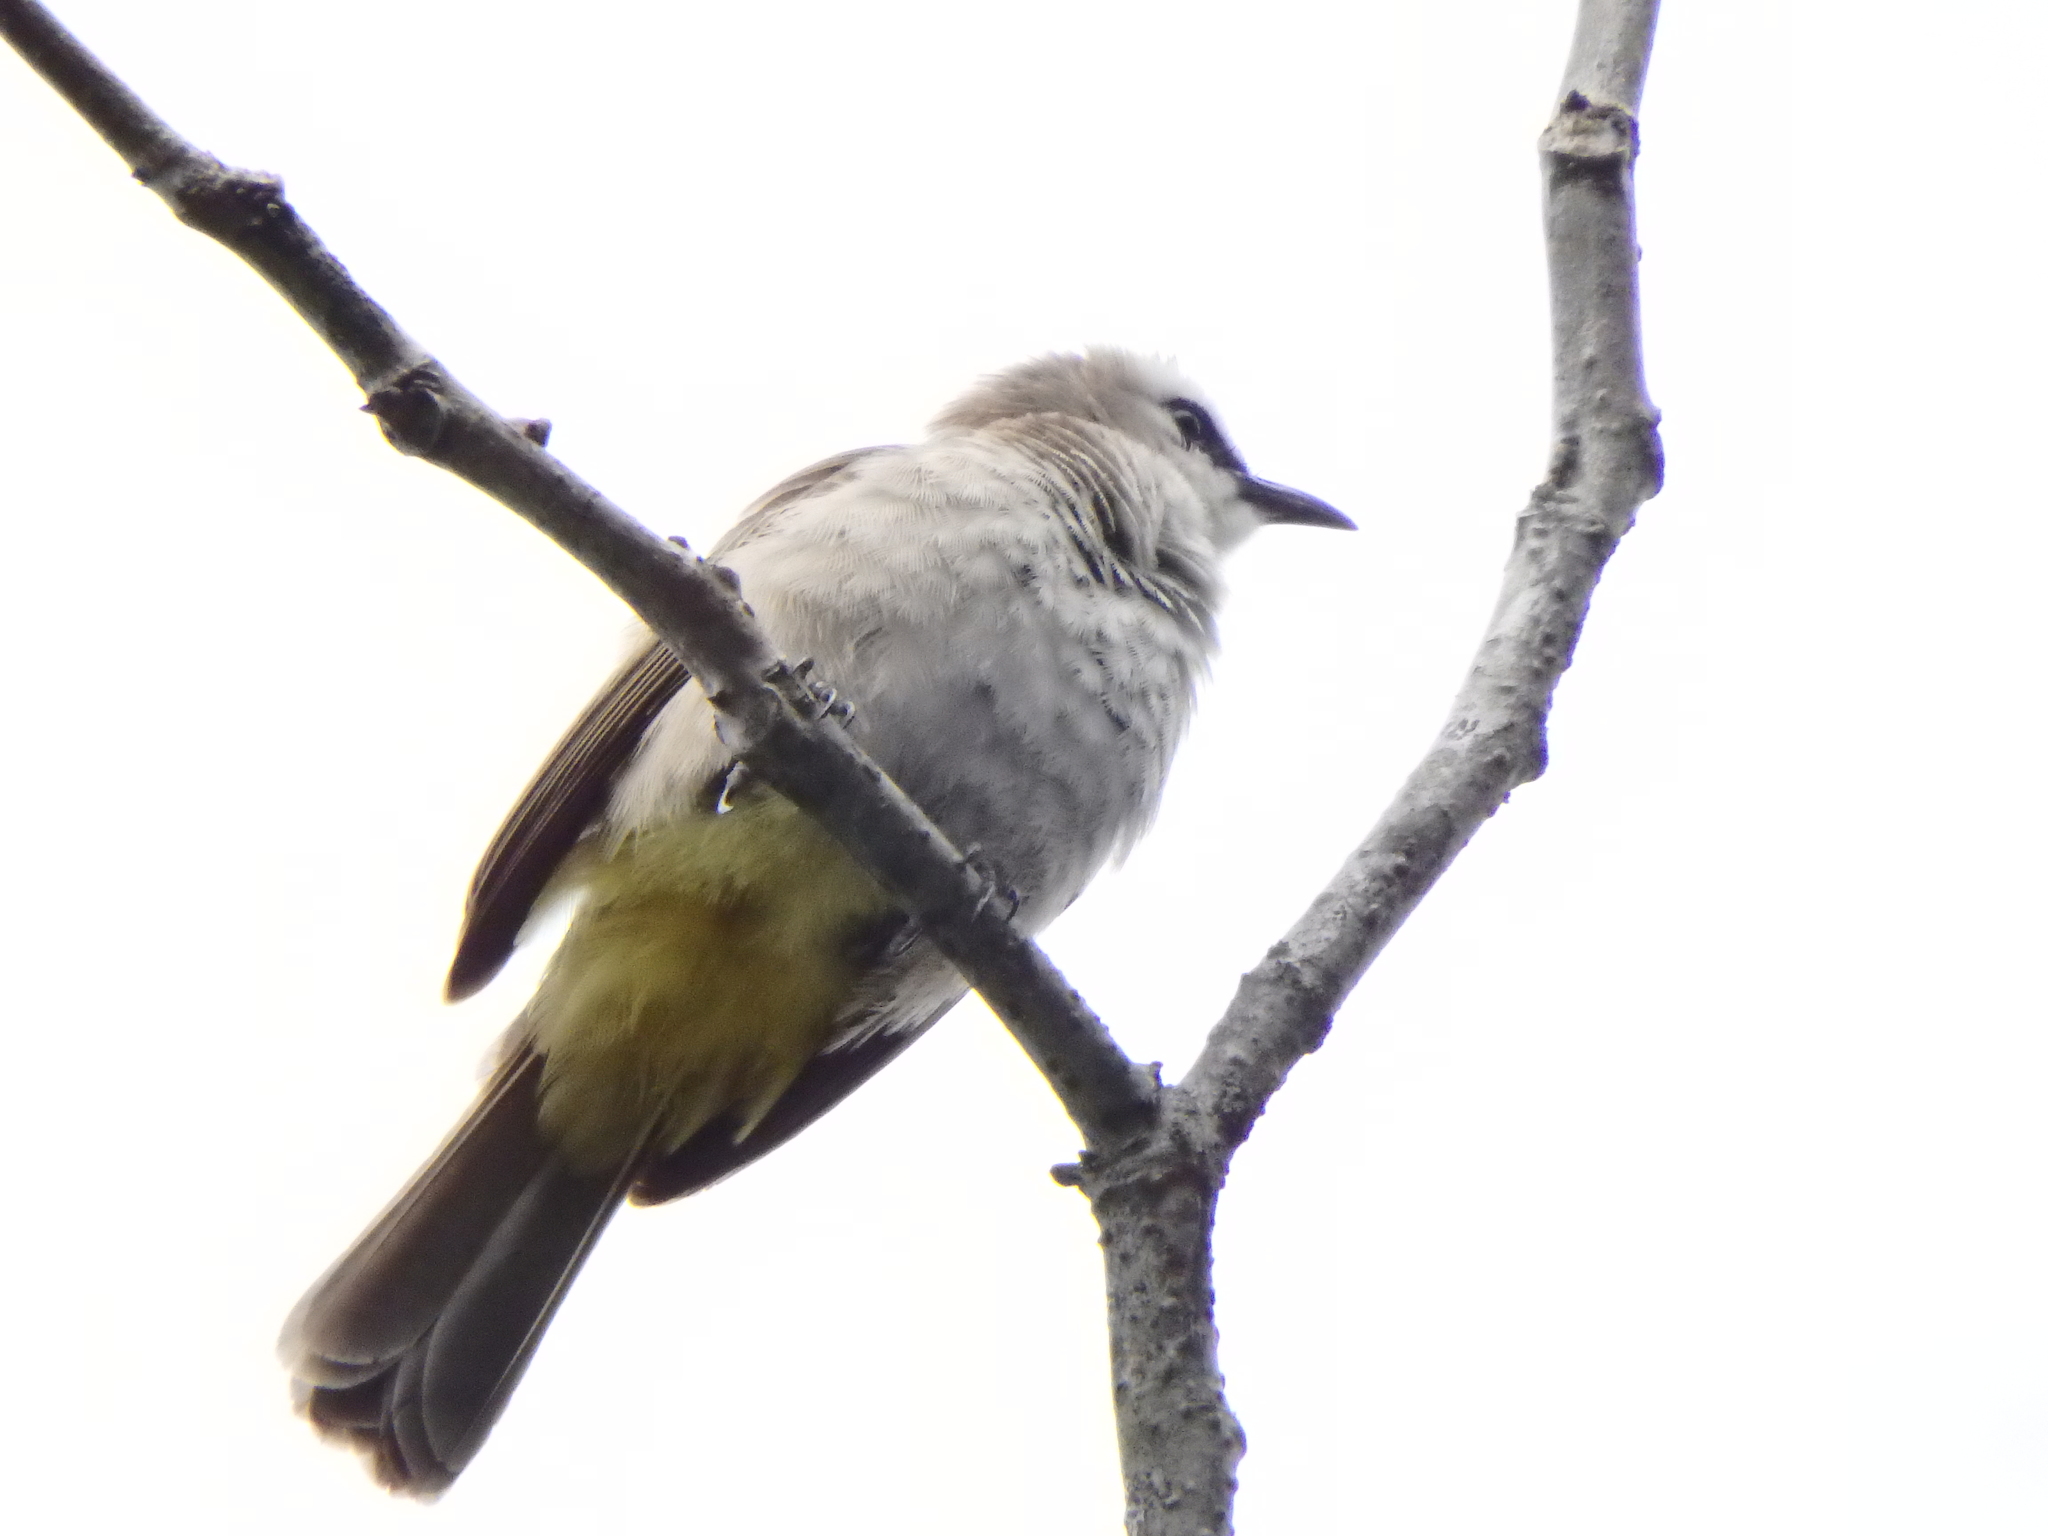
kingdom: Animalia
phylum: Chordata
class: Aves
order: Passeriformes
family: Pycnonotidae
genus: Pycnonotus
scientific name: Pycnonotus goiavier
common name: Yellow-vented bulbul
